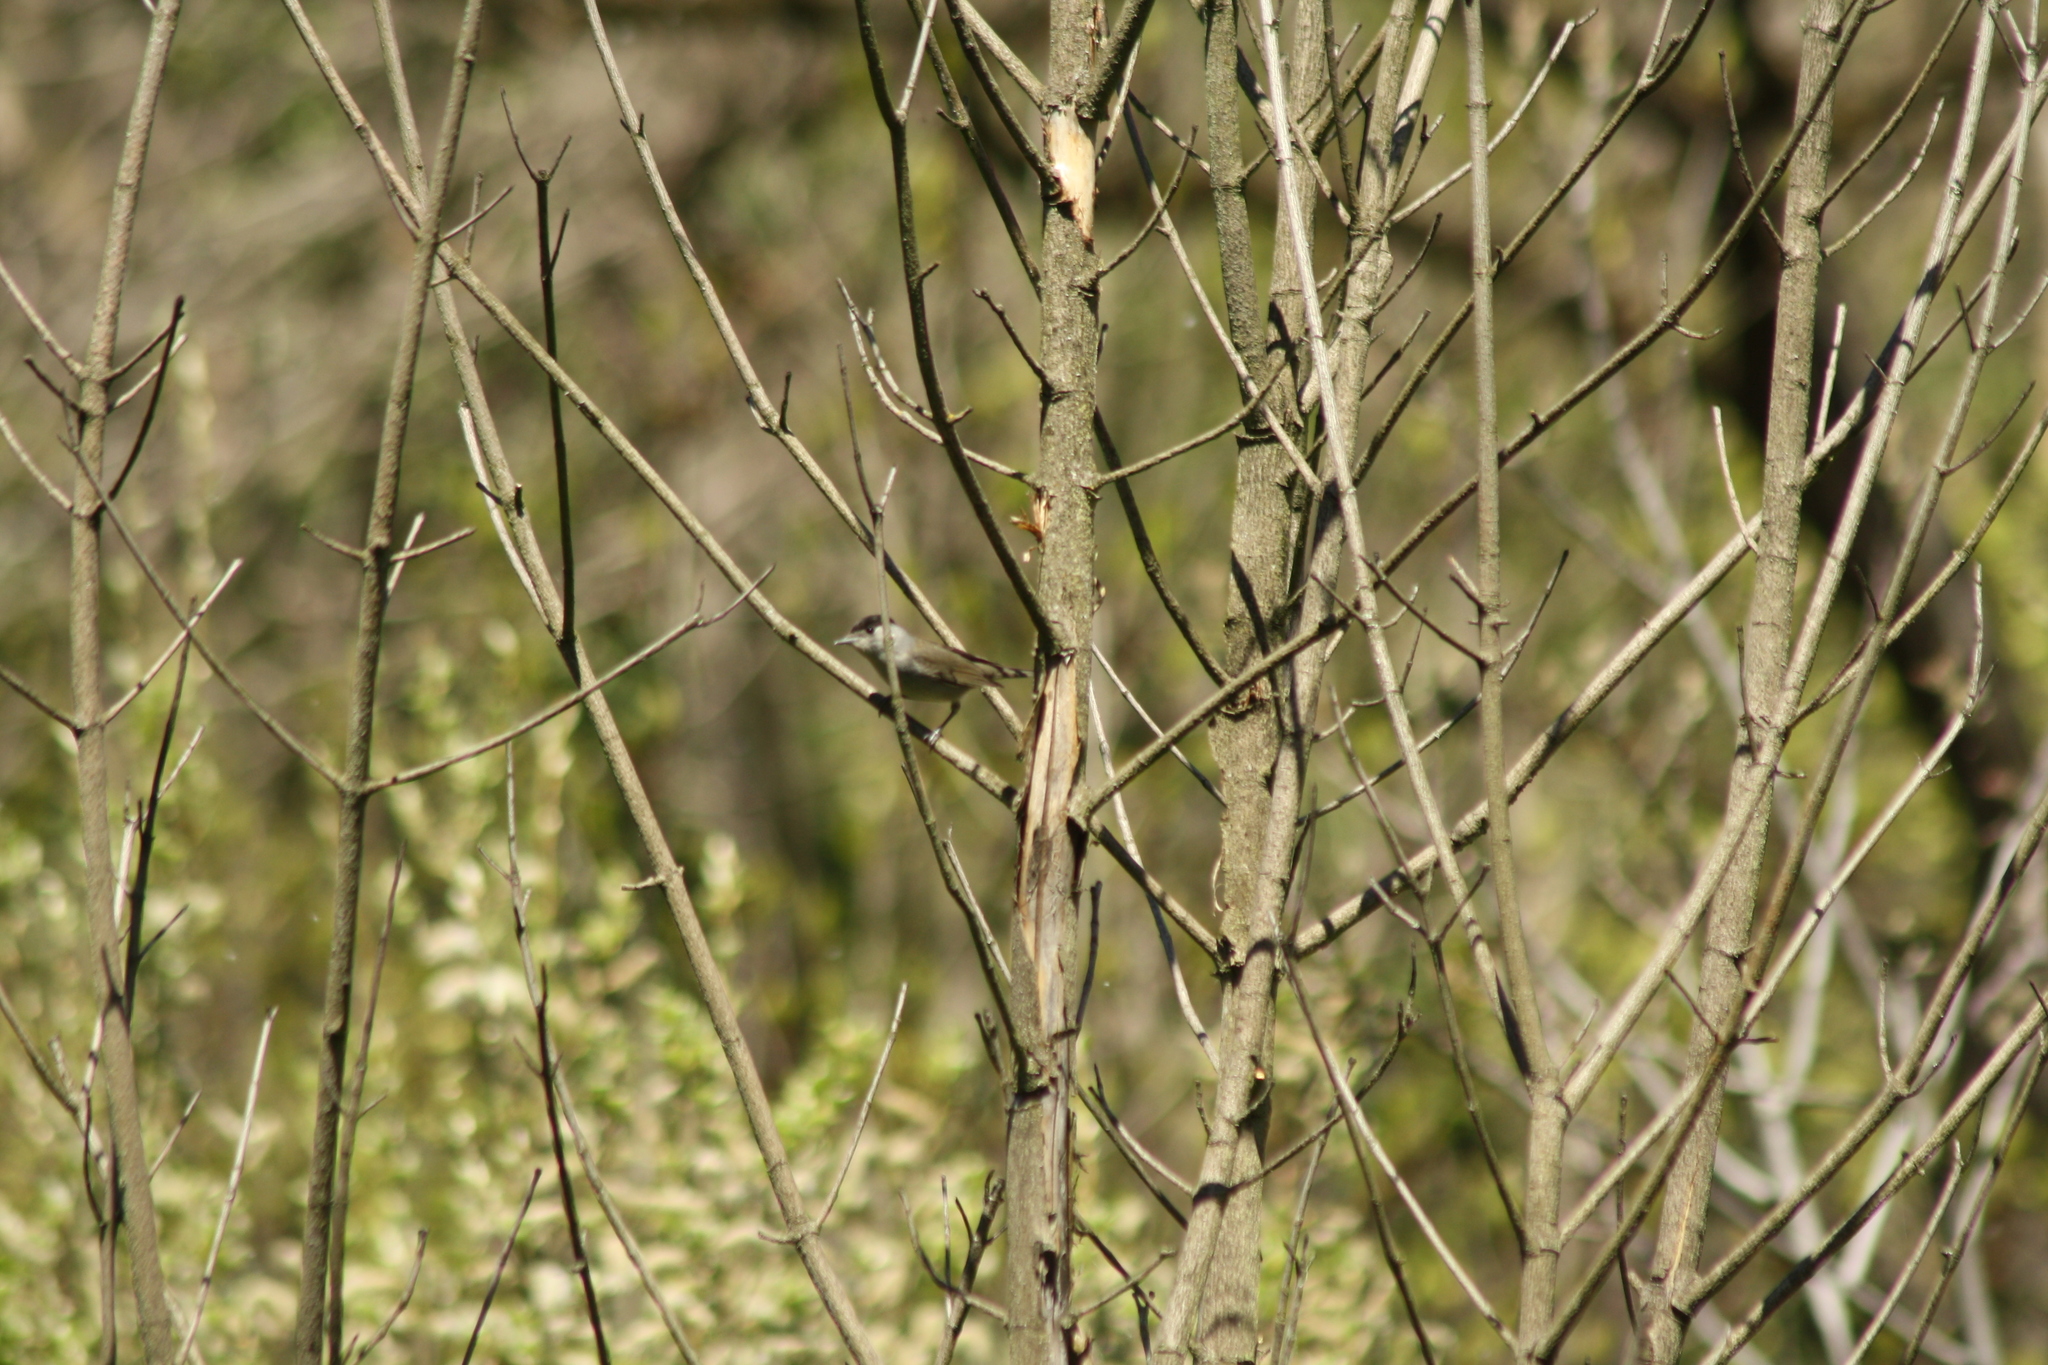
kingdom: Animalia
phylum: Chordata
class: Aves
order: Passeriformes
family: Sylviidae
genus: Sylvia
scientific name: Sylvia atricapilla
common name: Eurasian blackcap
